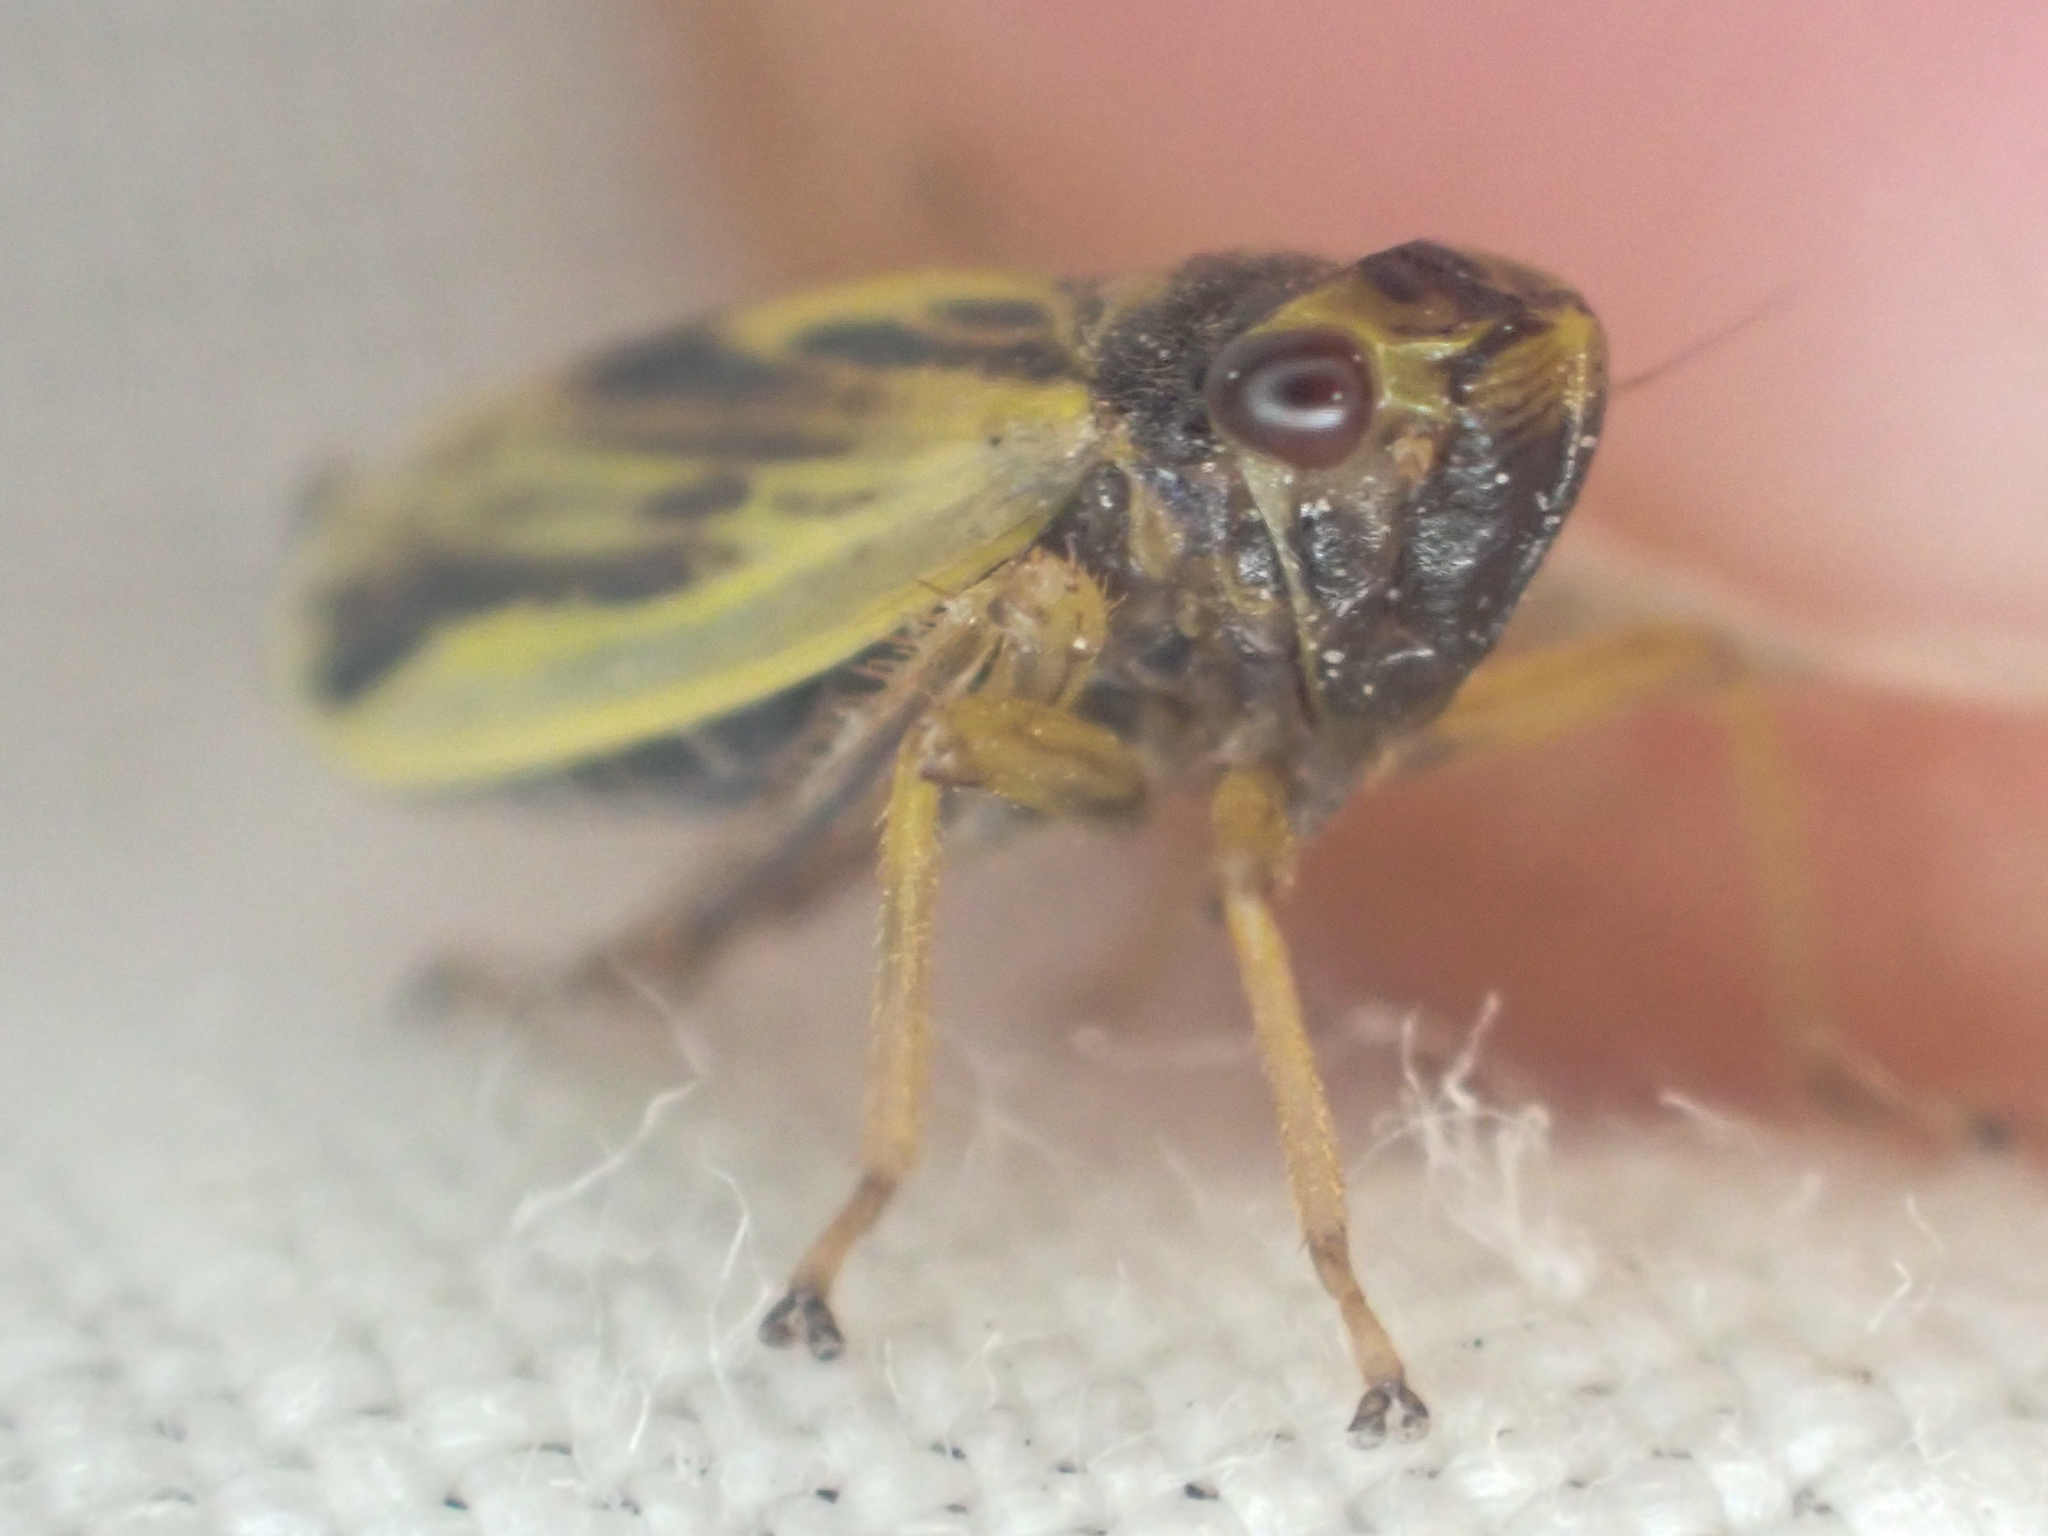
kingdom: Animalia
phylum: Arthropoda
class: Insecta
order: Hemiptera
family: Cicadellidae
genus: Evacanthus
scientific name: Evacanthus emilus
